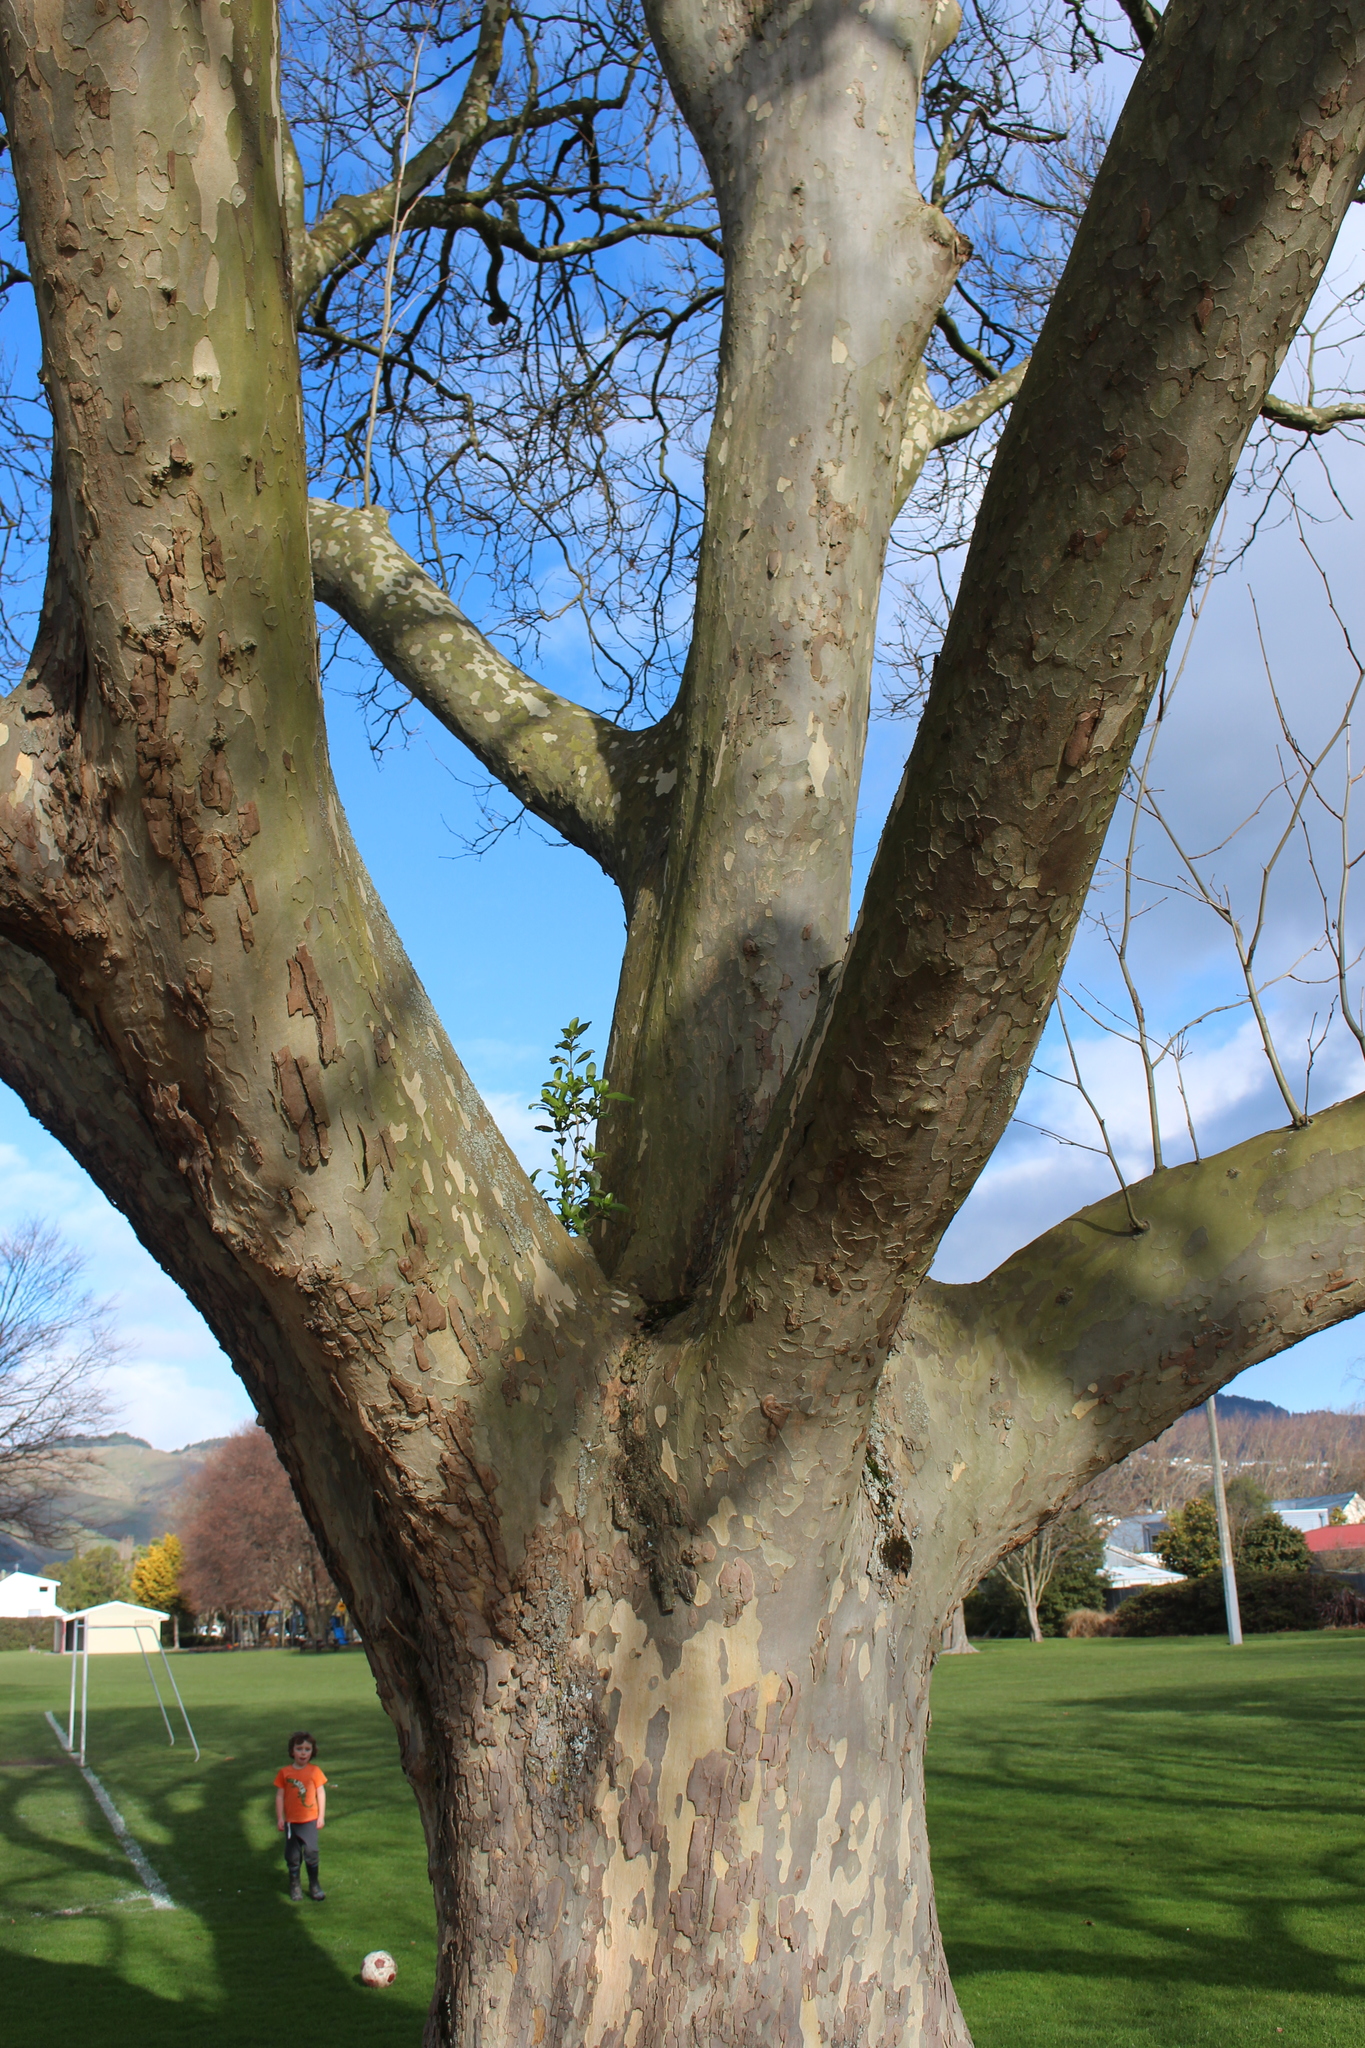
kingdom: Plantae
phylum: Tracheophyta
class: Magnoliopsida
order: Gentianales
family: Rubiaceae
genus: Coprosma
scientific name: Coprosma robusta
